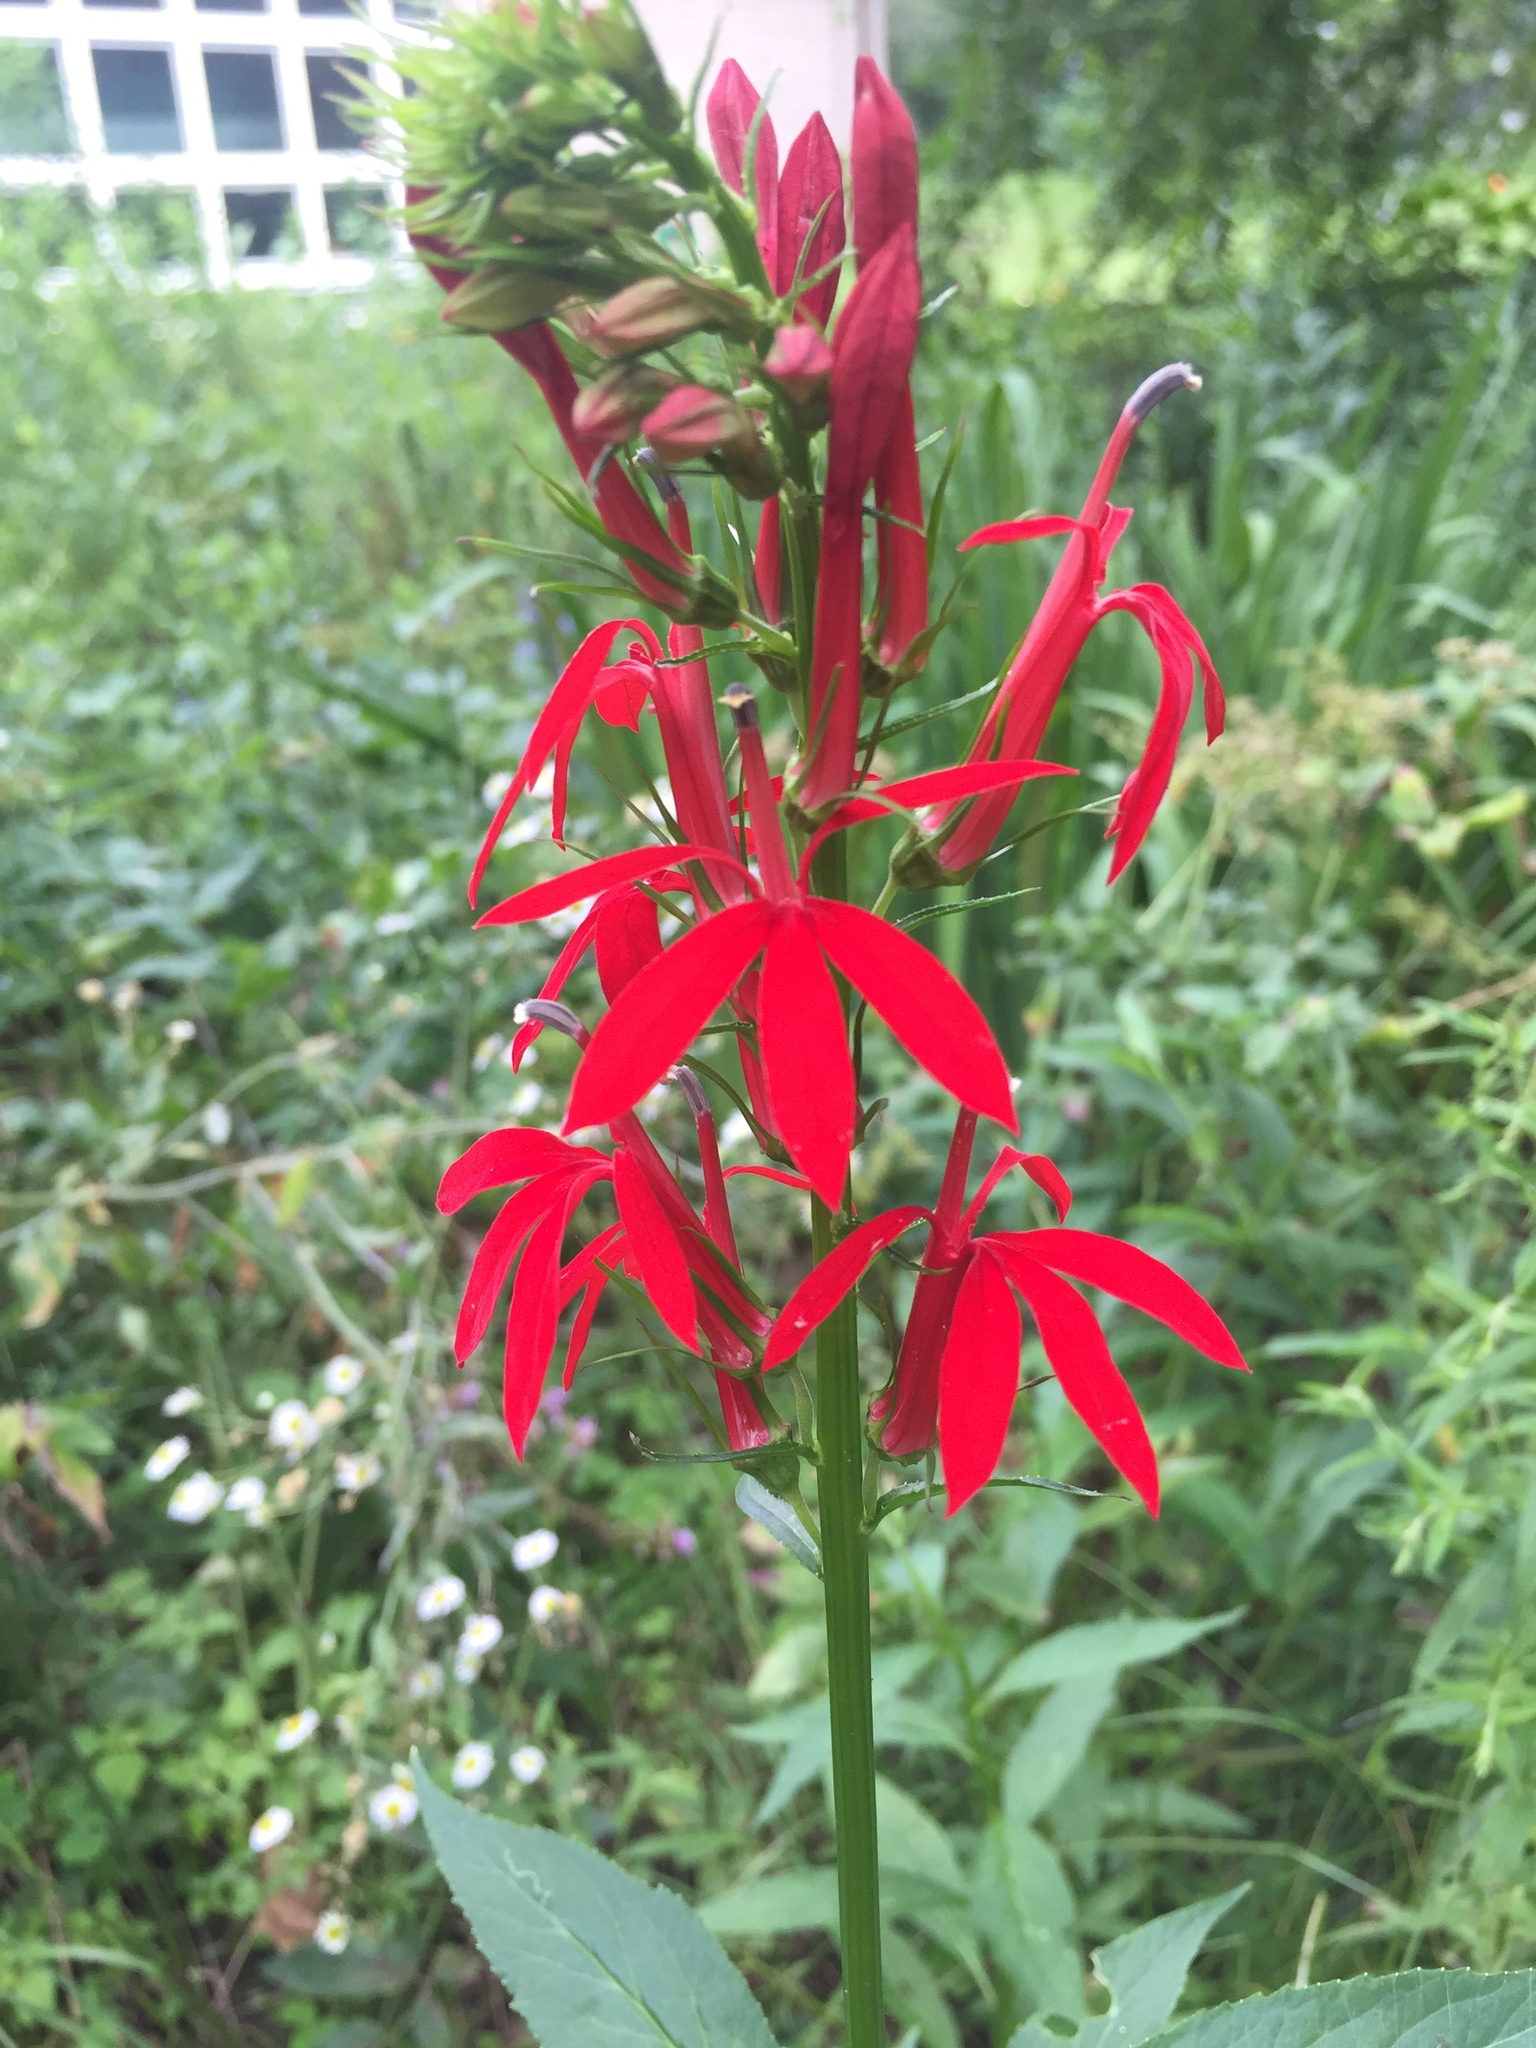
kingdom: Plantae
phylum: Tracheophyta
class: Magnoliopsida
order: Asterales
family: Campanulaceae
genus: Lobelia
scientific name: Lobelia cardinalis
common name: Cardinal flower
